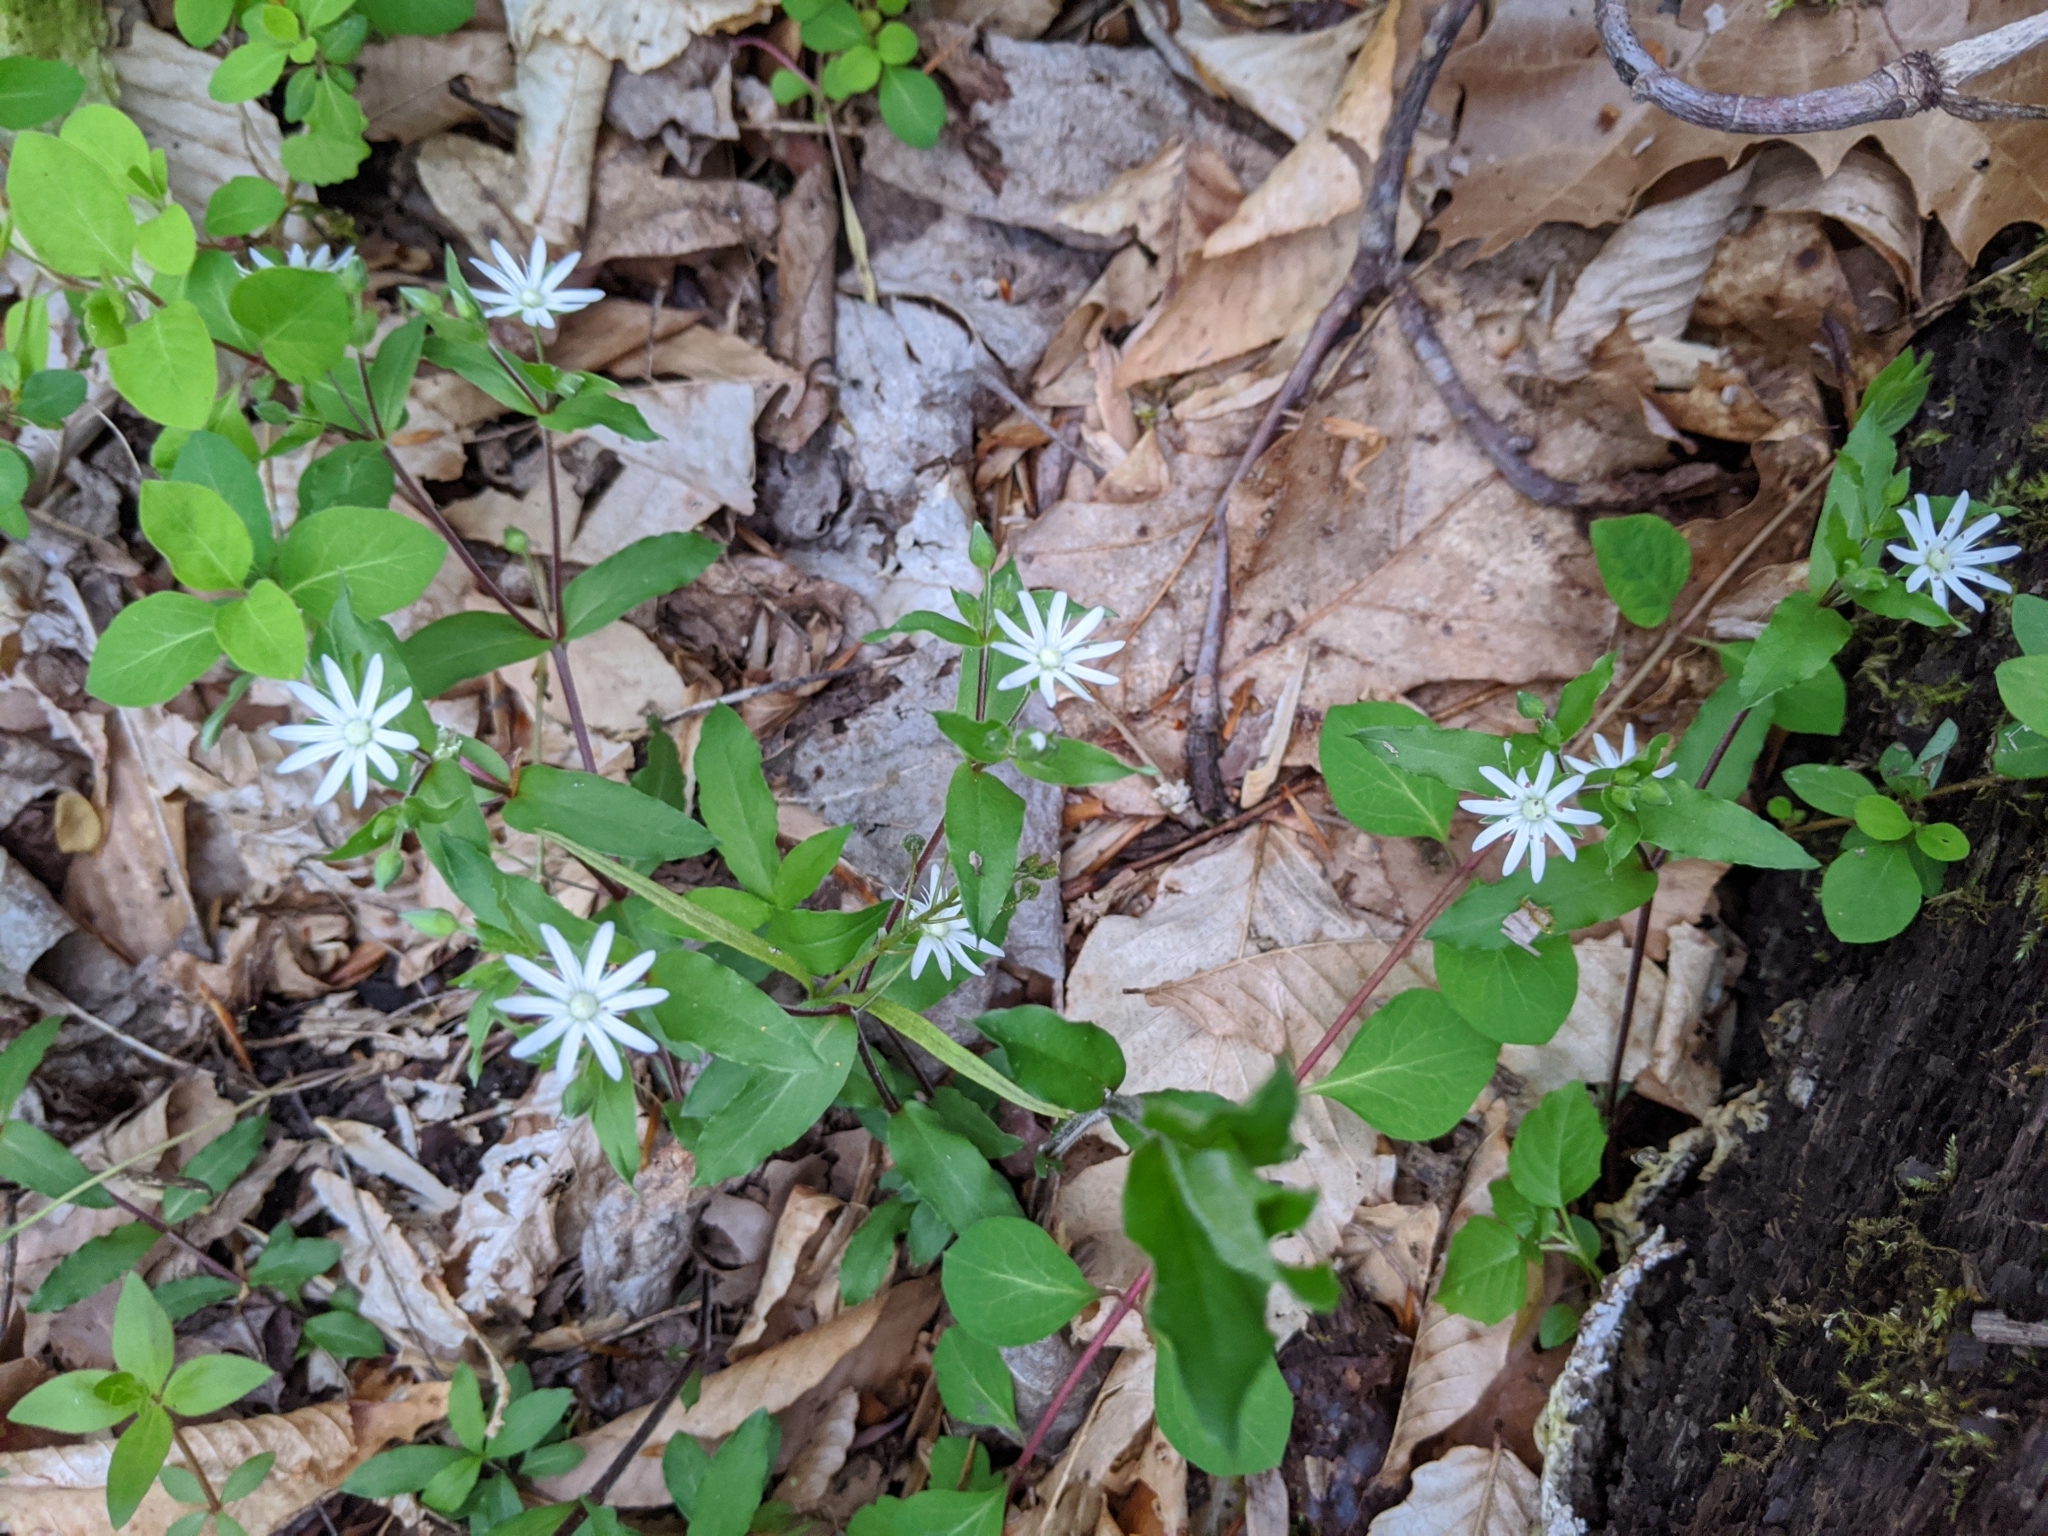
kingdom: Plantae
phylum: Tracheophyta
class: Magnoliopsida
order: Caryophyllales
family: Caryophyllaceae
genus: Stellaria
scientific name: Stellaria pubera
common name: Star chickweed
